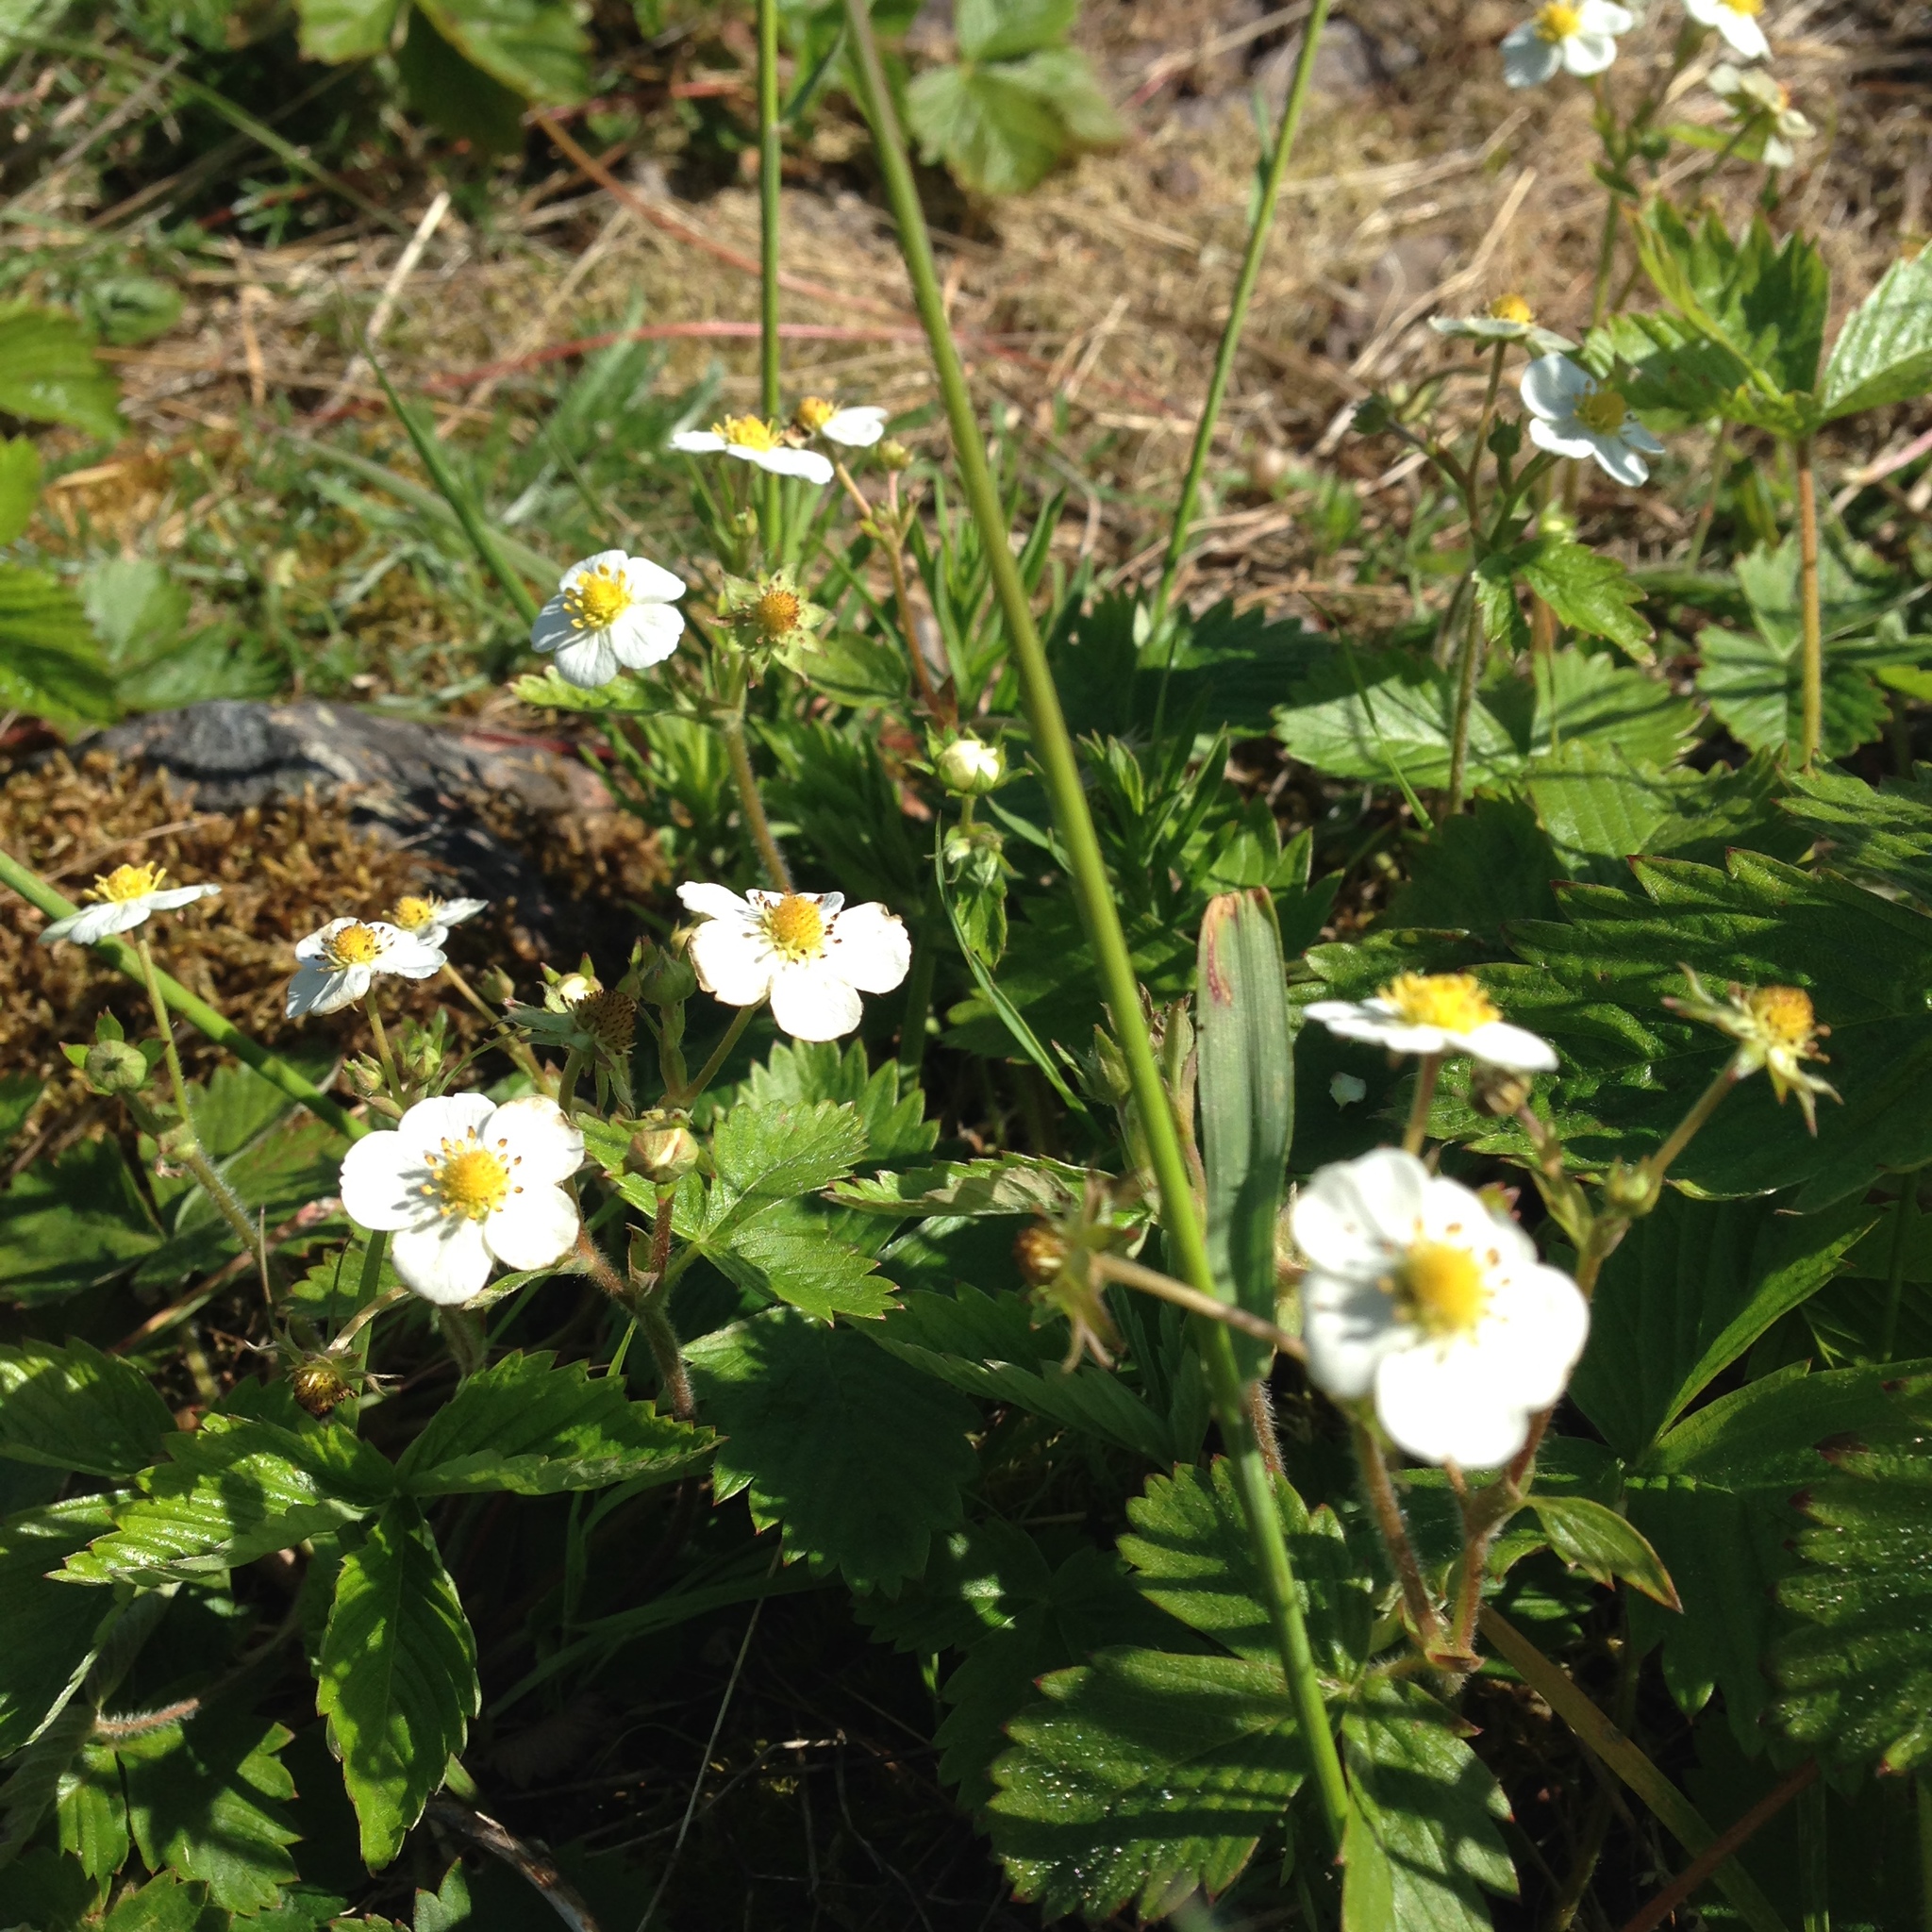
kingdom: Plantae
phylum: Tracheophyta
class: Magnoliopsida
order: Rosales
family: Rosaceae
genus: Fragaria
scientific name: Fragaria vesca
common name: Wild strawberry
